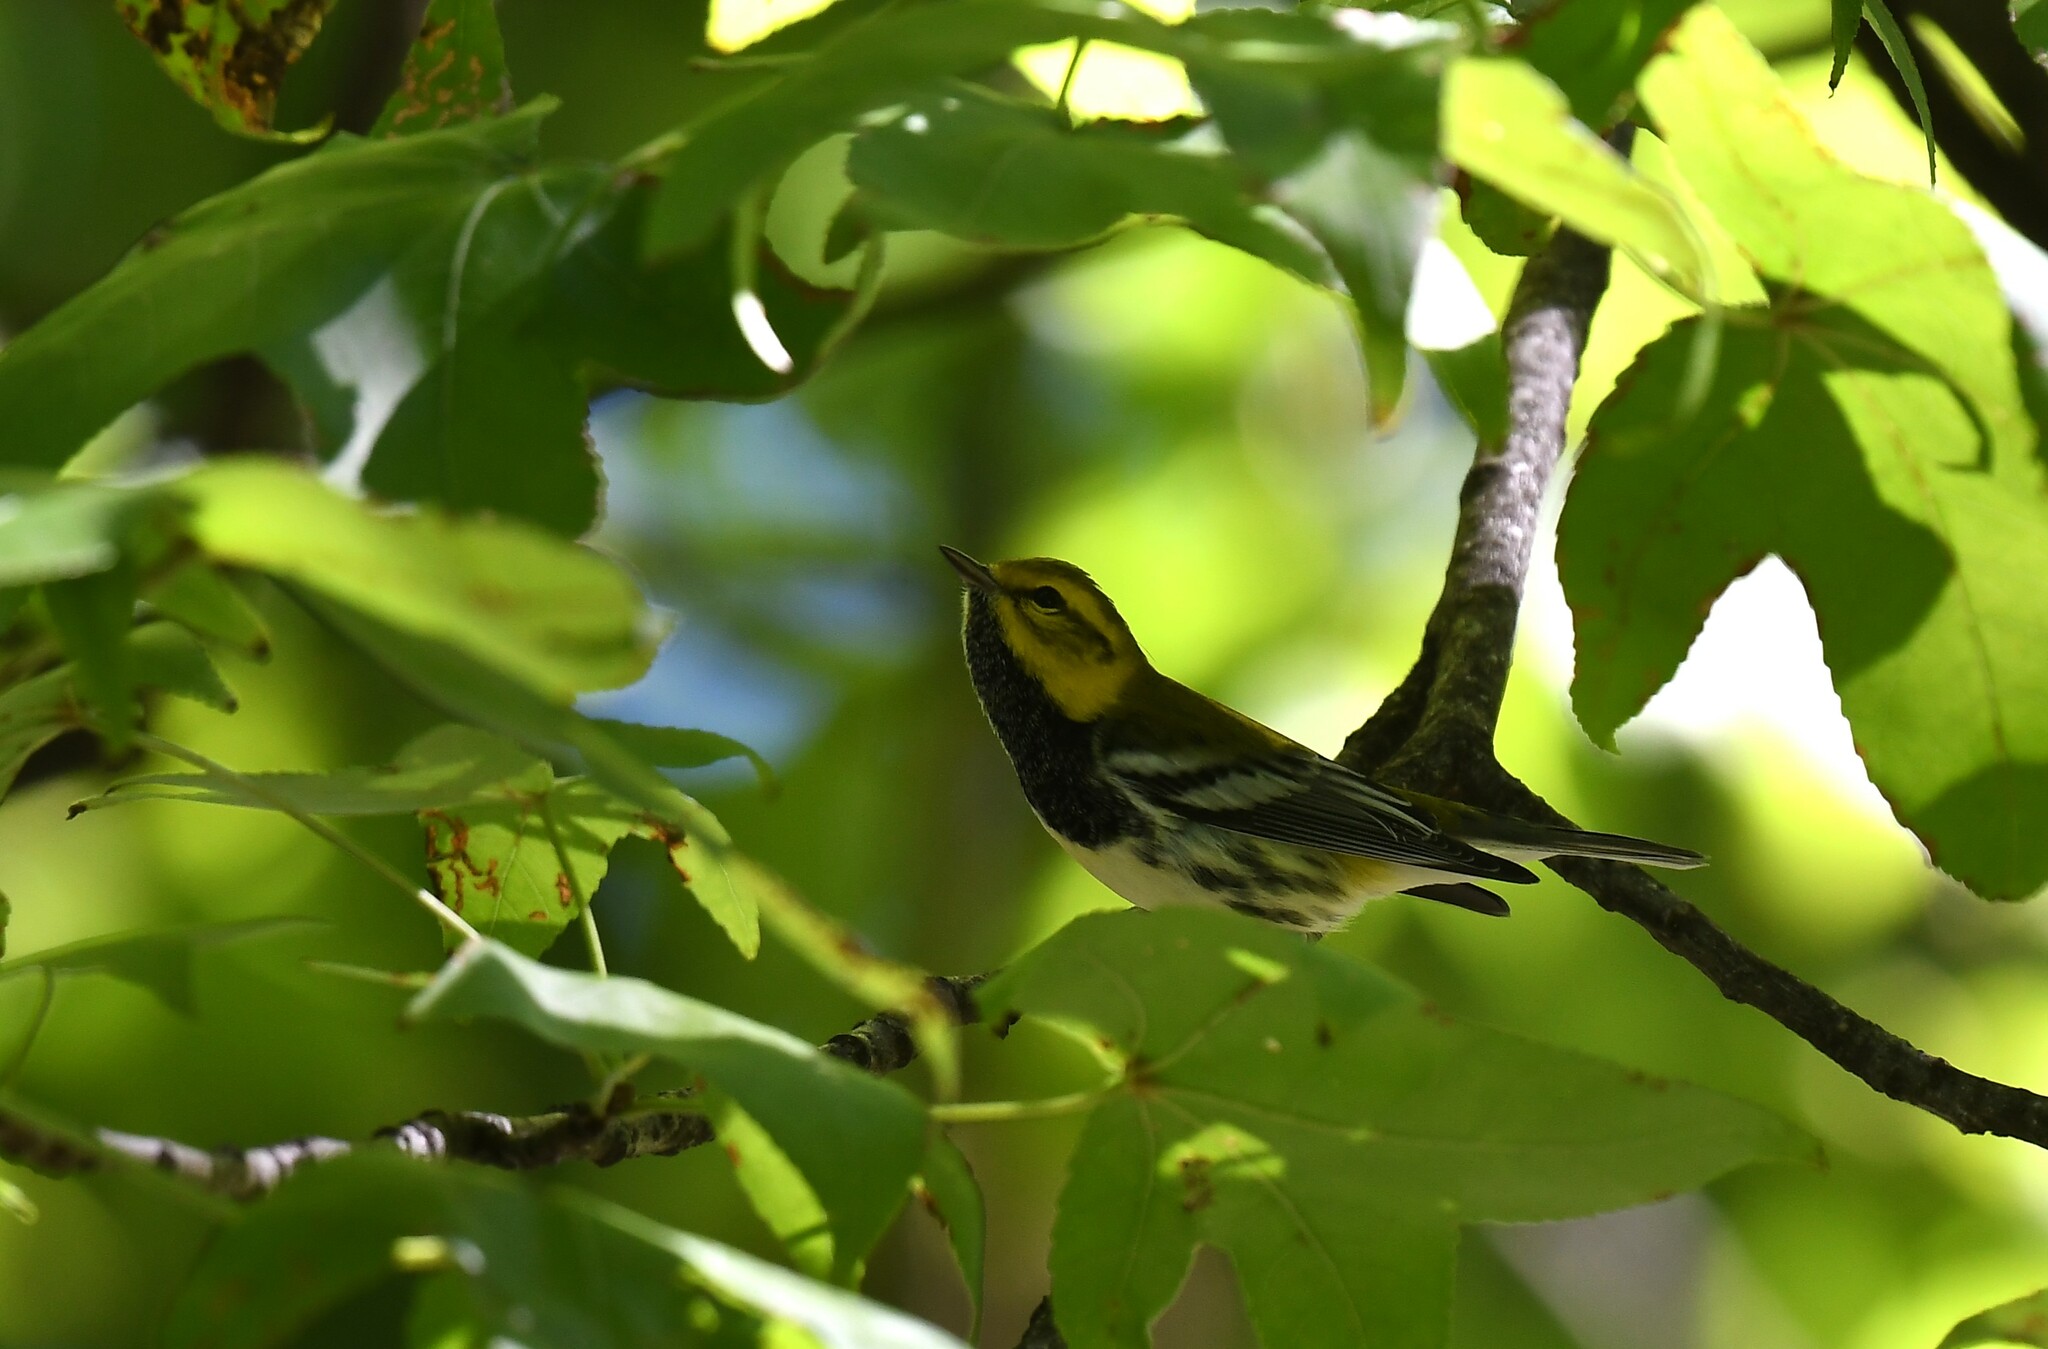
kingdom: Animalia
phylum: Chordata
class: Aves
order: Passeriformes
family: Parulidae
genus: Setophaga
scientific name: Setophaga virens
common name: Black-throated green warbler
